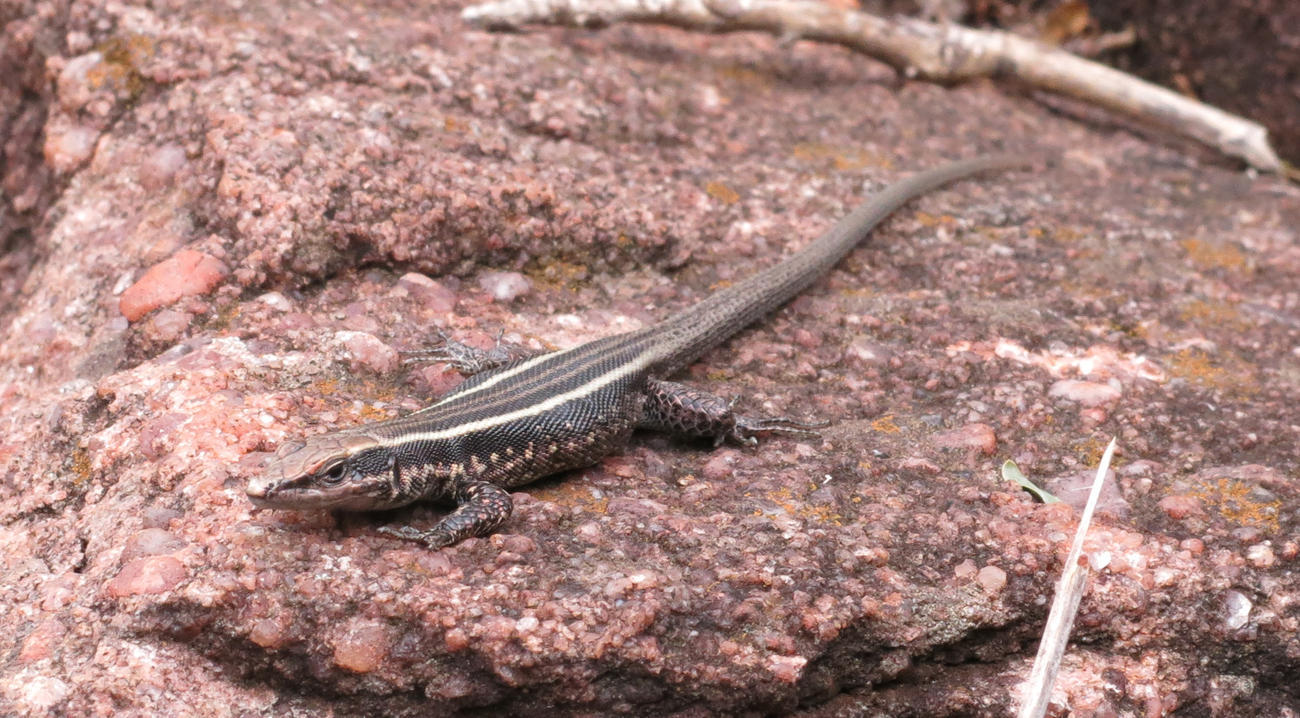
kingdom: Animalia
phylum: Chordata
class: Squamata
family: Lacertidae
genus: Vhembelacerta
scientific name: Vhembelacerta rupicola
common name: Soutpansberg rock lizard
